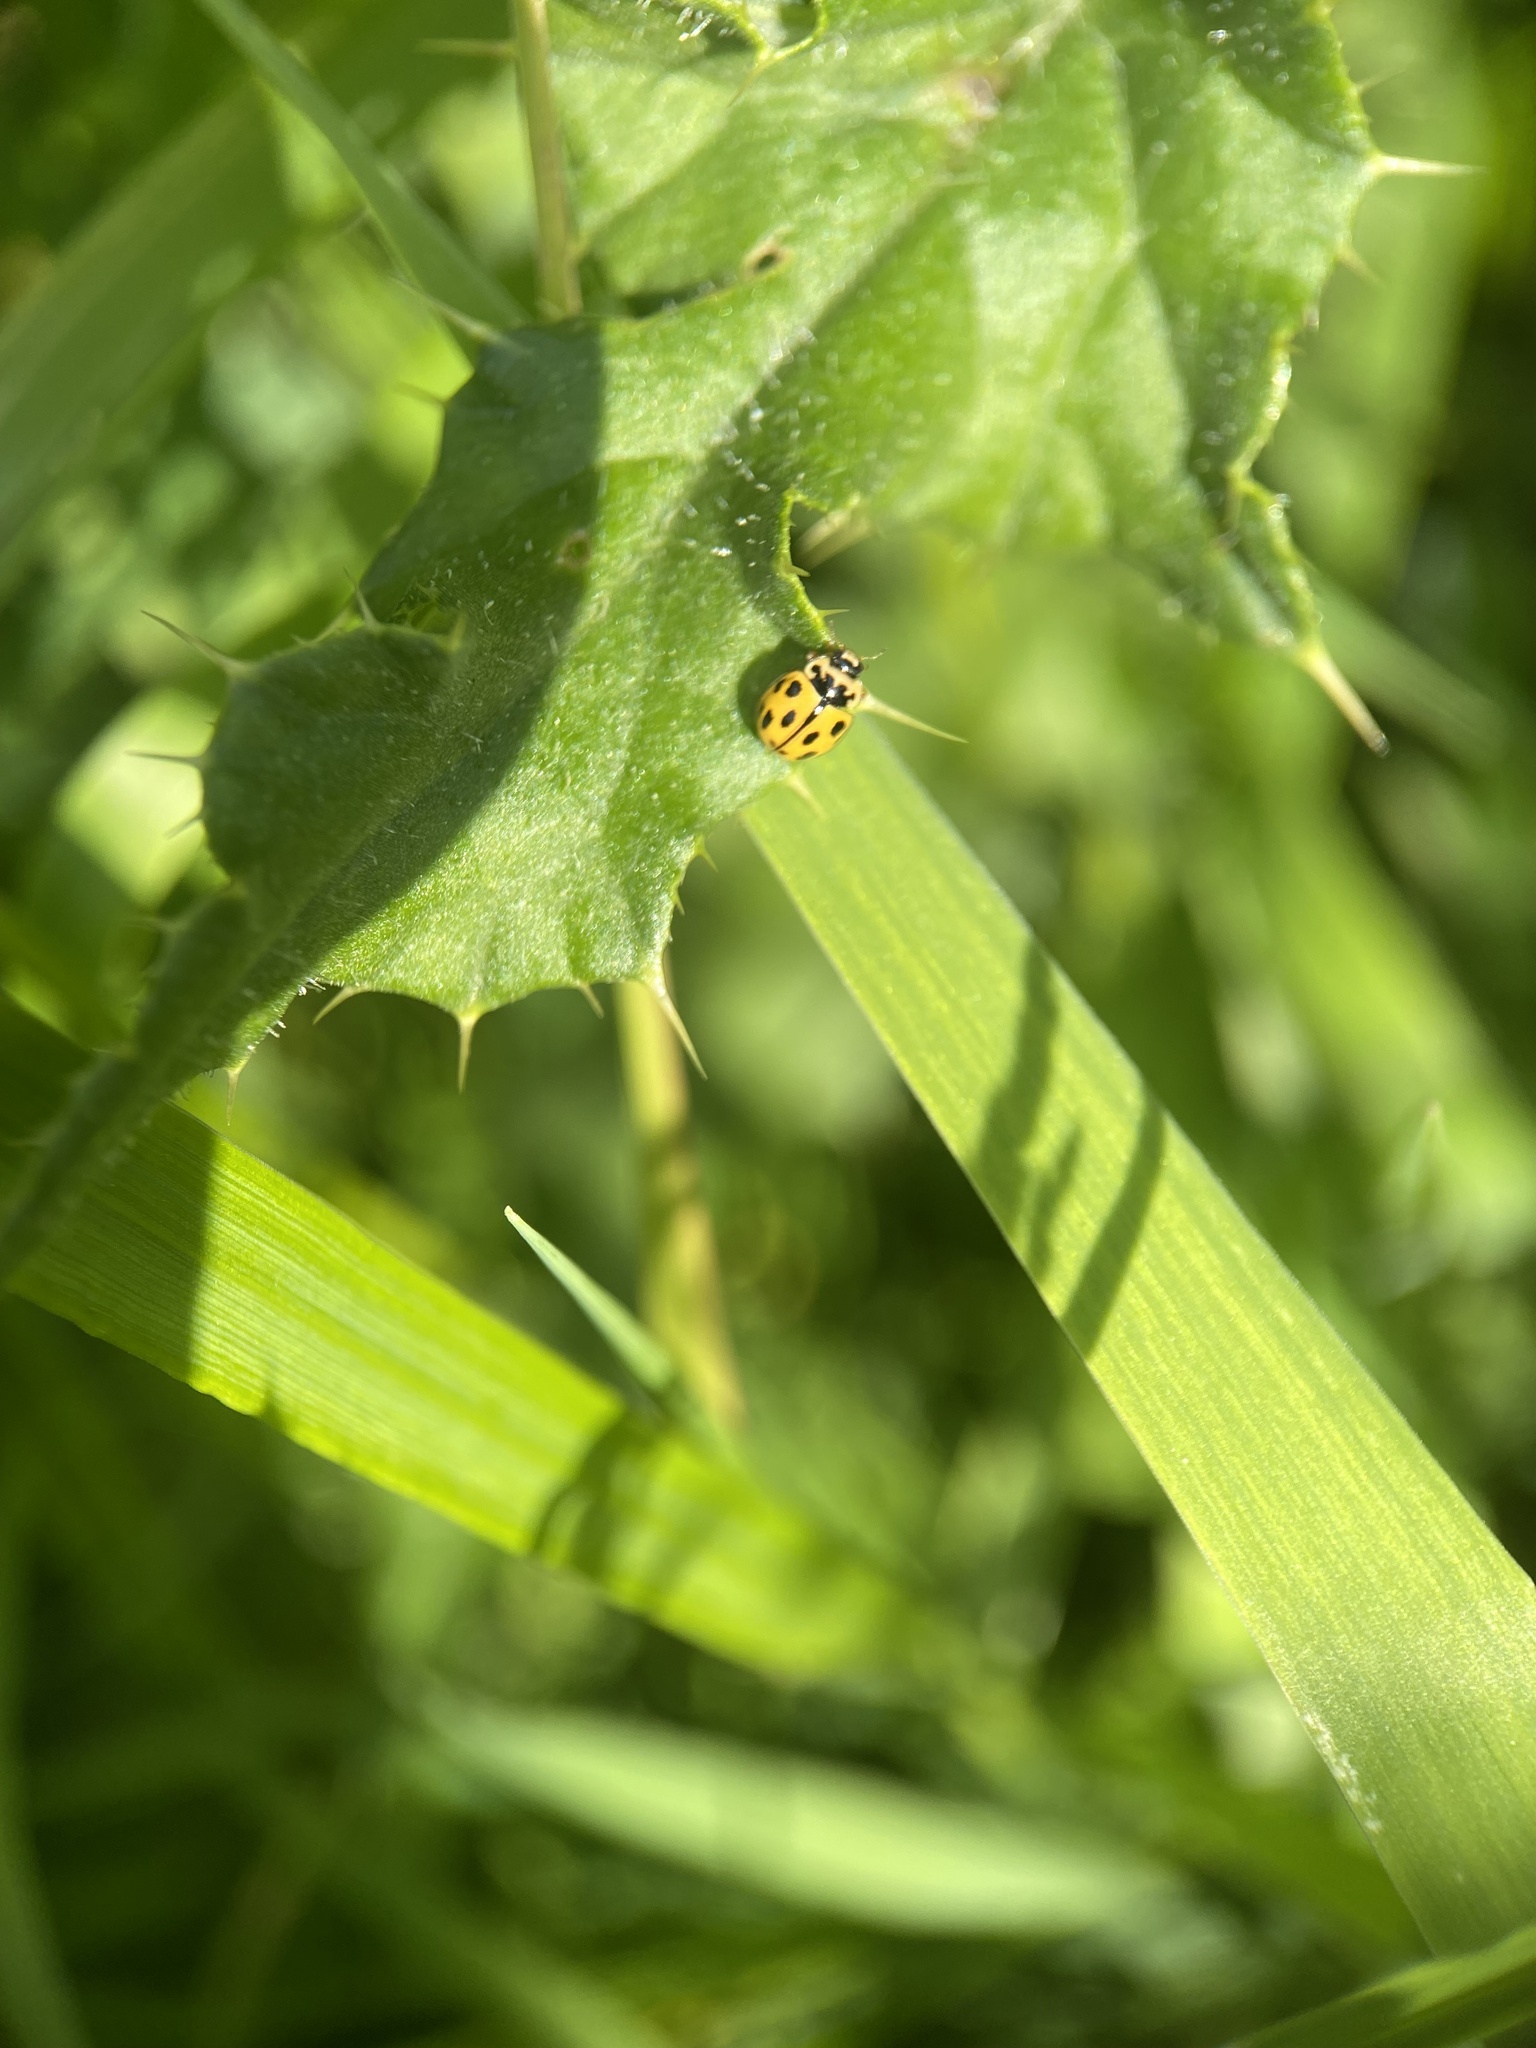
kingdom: Animalia
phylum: Arthropoda
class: Insecta
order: Coleoptera
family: Coccinellidae
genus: Propylaea
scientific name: Propylaea quatuordecimpunctata
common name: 14-spotted ladybird beetle
